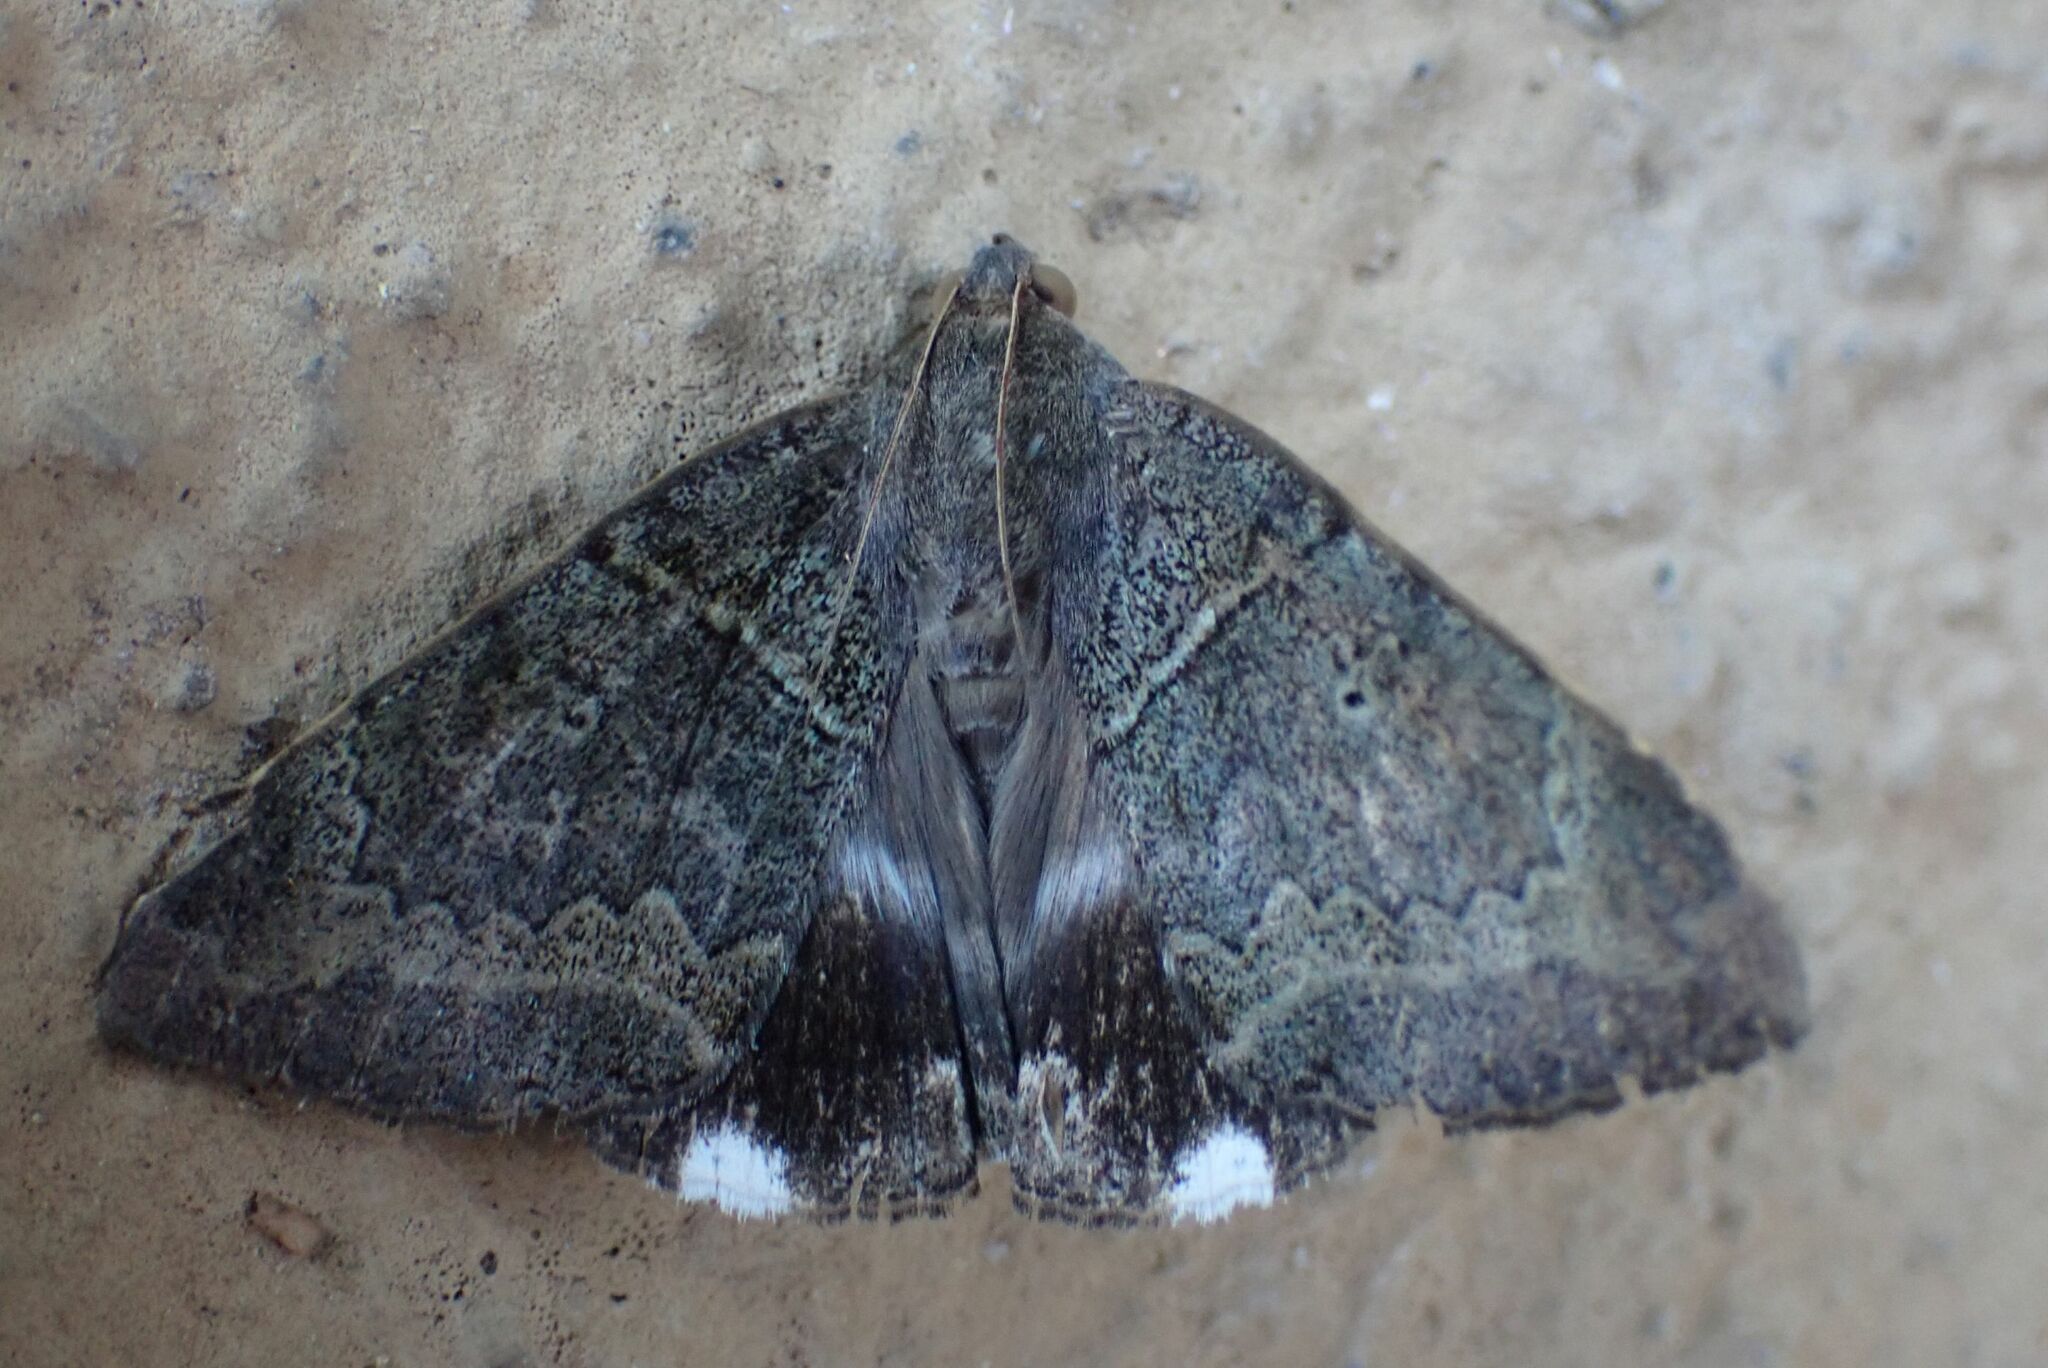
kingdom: Animalia
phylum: Arthropoda
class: Insecta
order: Lepidoptera
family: Erebidae
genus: Achaea
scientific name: Achaea lienardi
